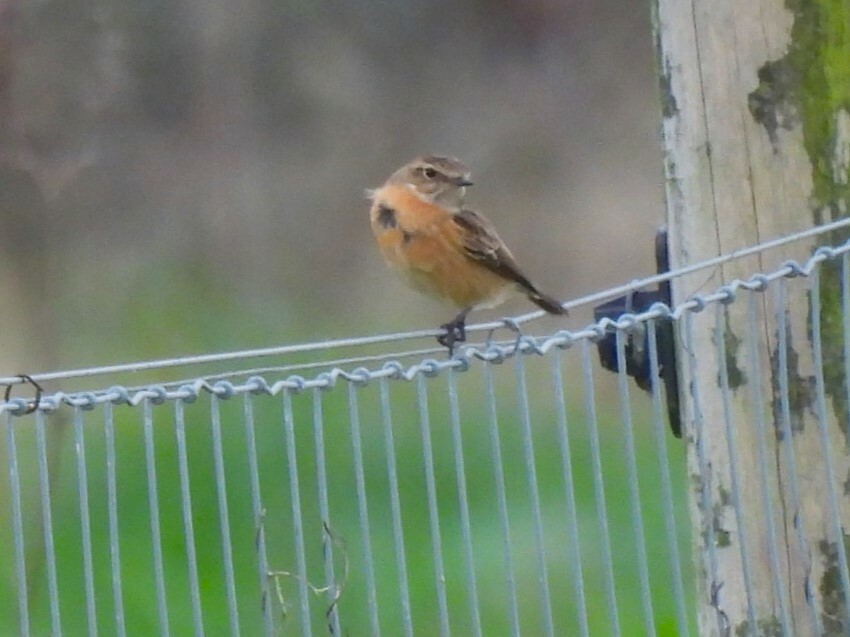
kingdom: Animalia
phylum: Chordata
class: Aves
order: Passeriformes
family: Muscicapidae
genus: Saxicola
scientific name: Saxicola rubicola
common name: European stonechat
